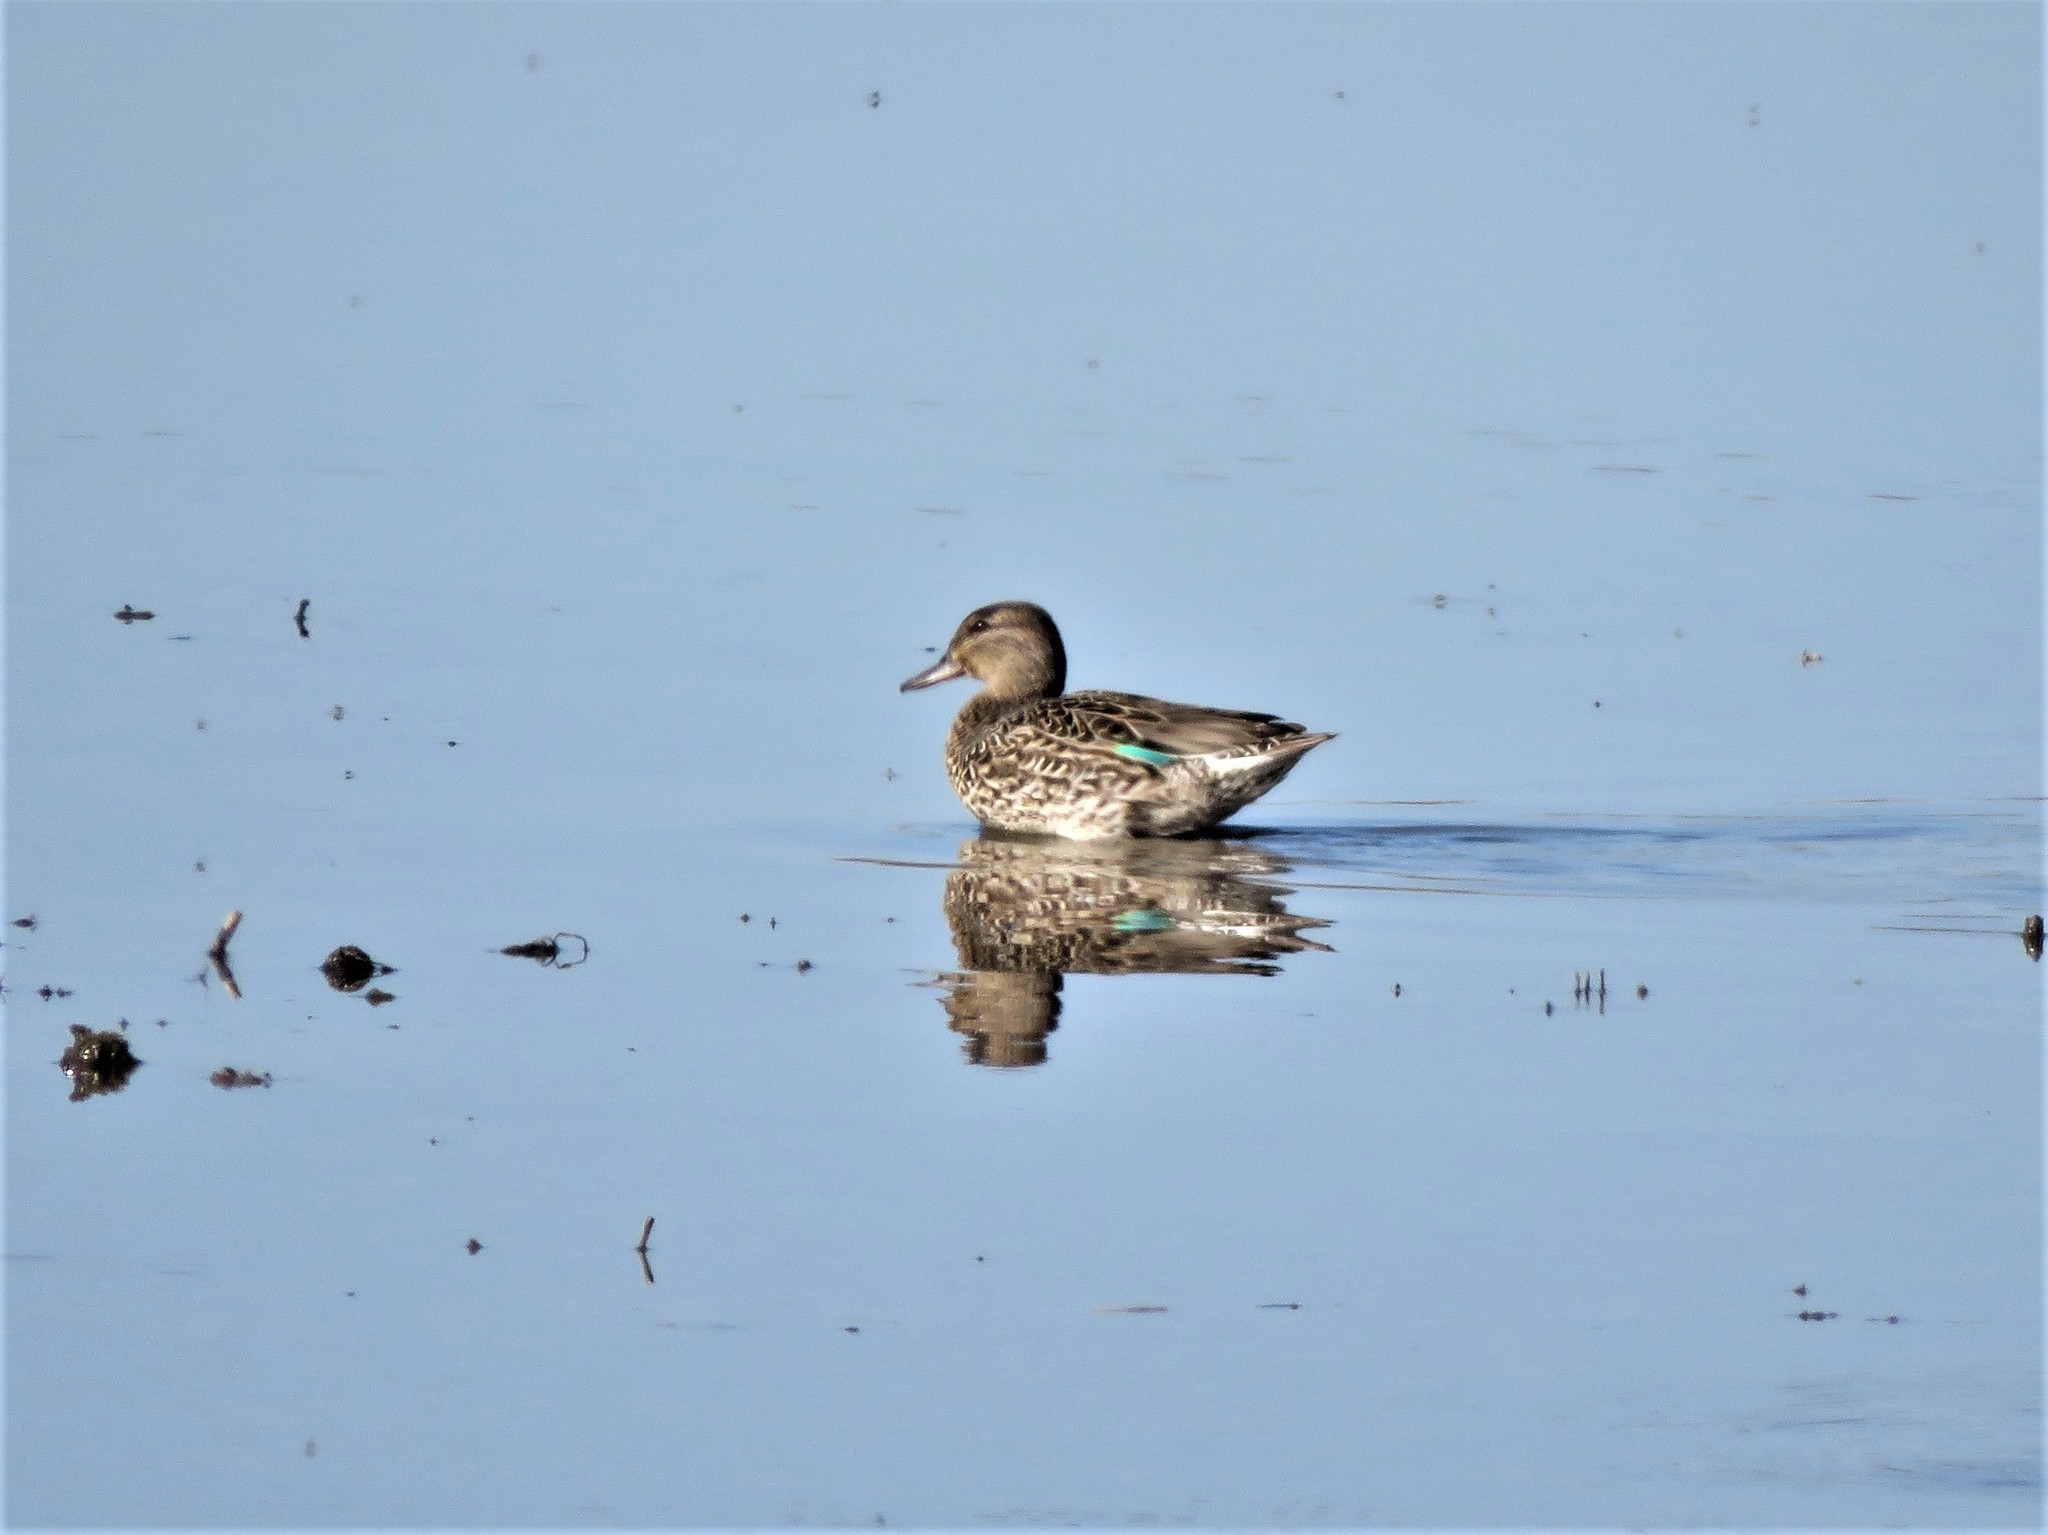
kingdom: Animalia
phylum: Chordata
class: Aves
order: Anseriformes
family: Anatidae
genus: Anas
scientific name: Anas crecca
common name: Eurasian teal
